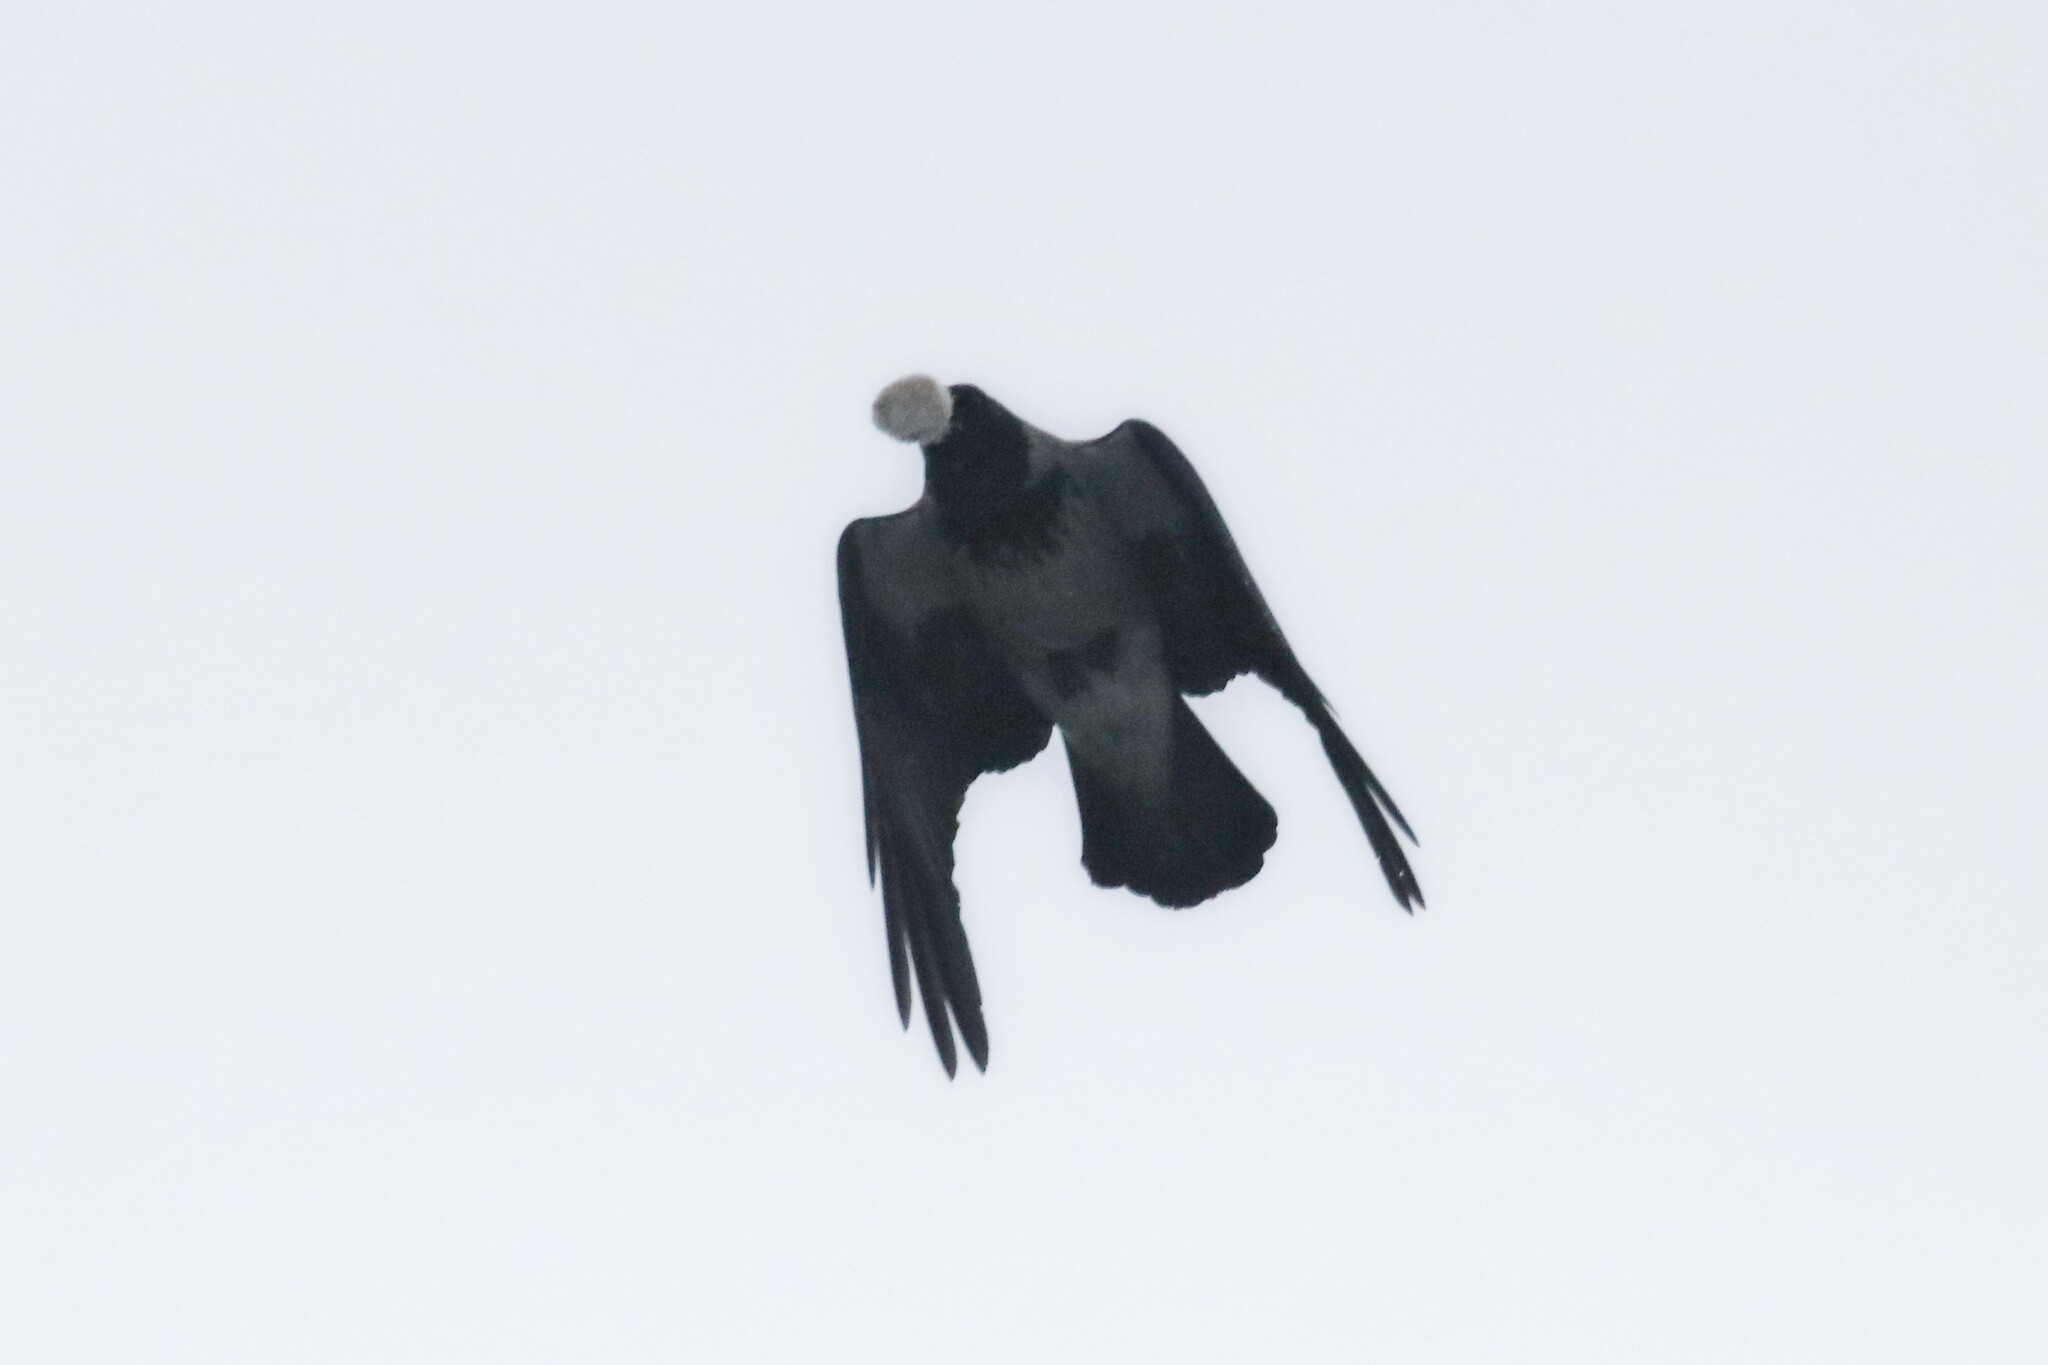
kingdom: Animalia
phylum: Chordata
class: Aves
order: Passeriformes
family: Corvidae
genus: Corvus
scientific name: Corvus cornix
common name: Hooded crow
